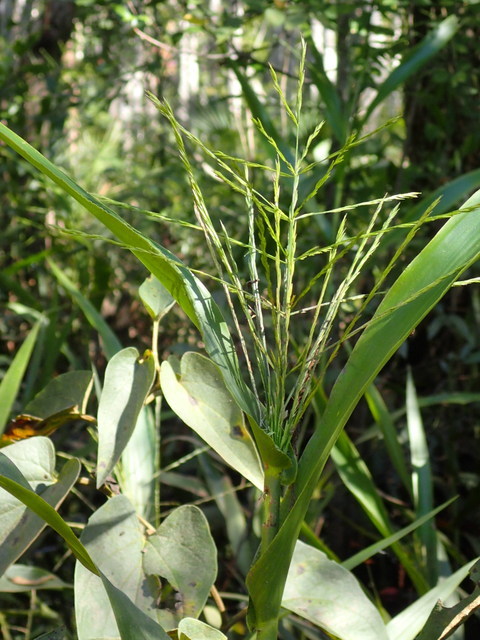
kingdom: Plantae
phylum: Tracheophyta
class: Liliopsida
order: Poales
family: Poaceae
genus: Panicum
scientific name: Panicum gymnocarpon
